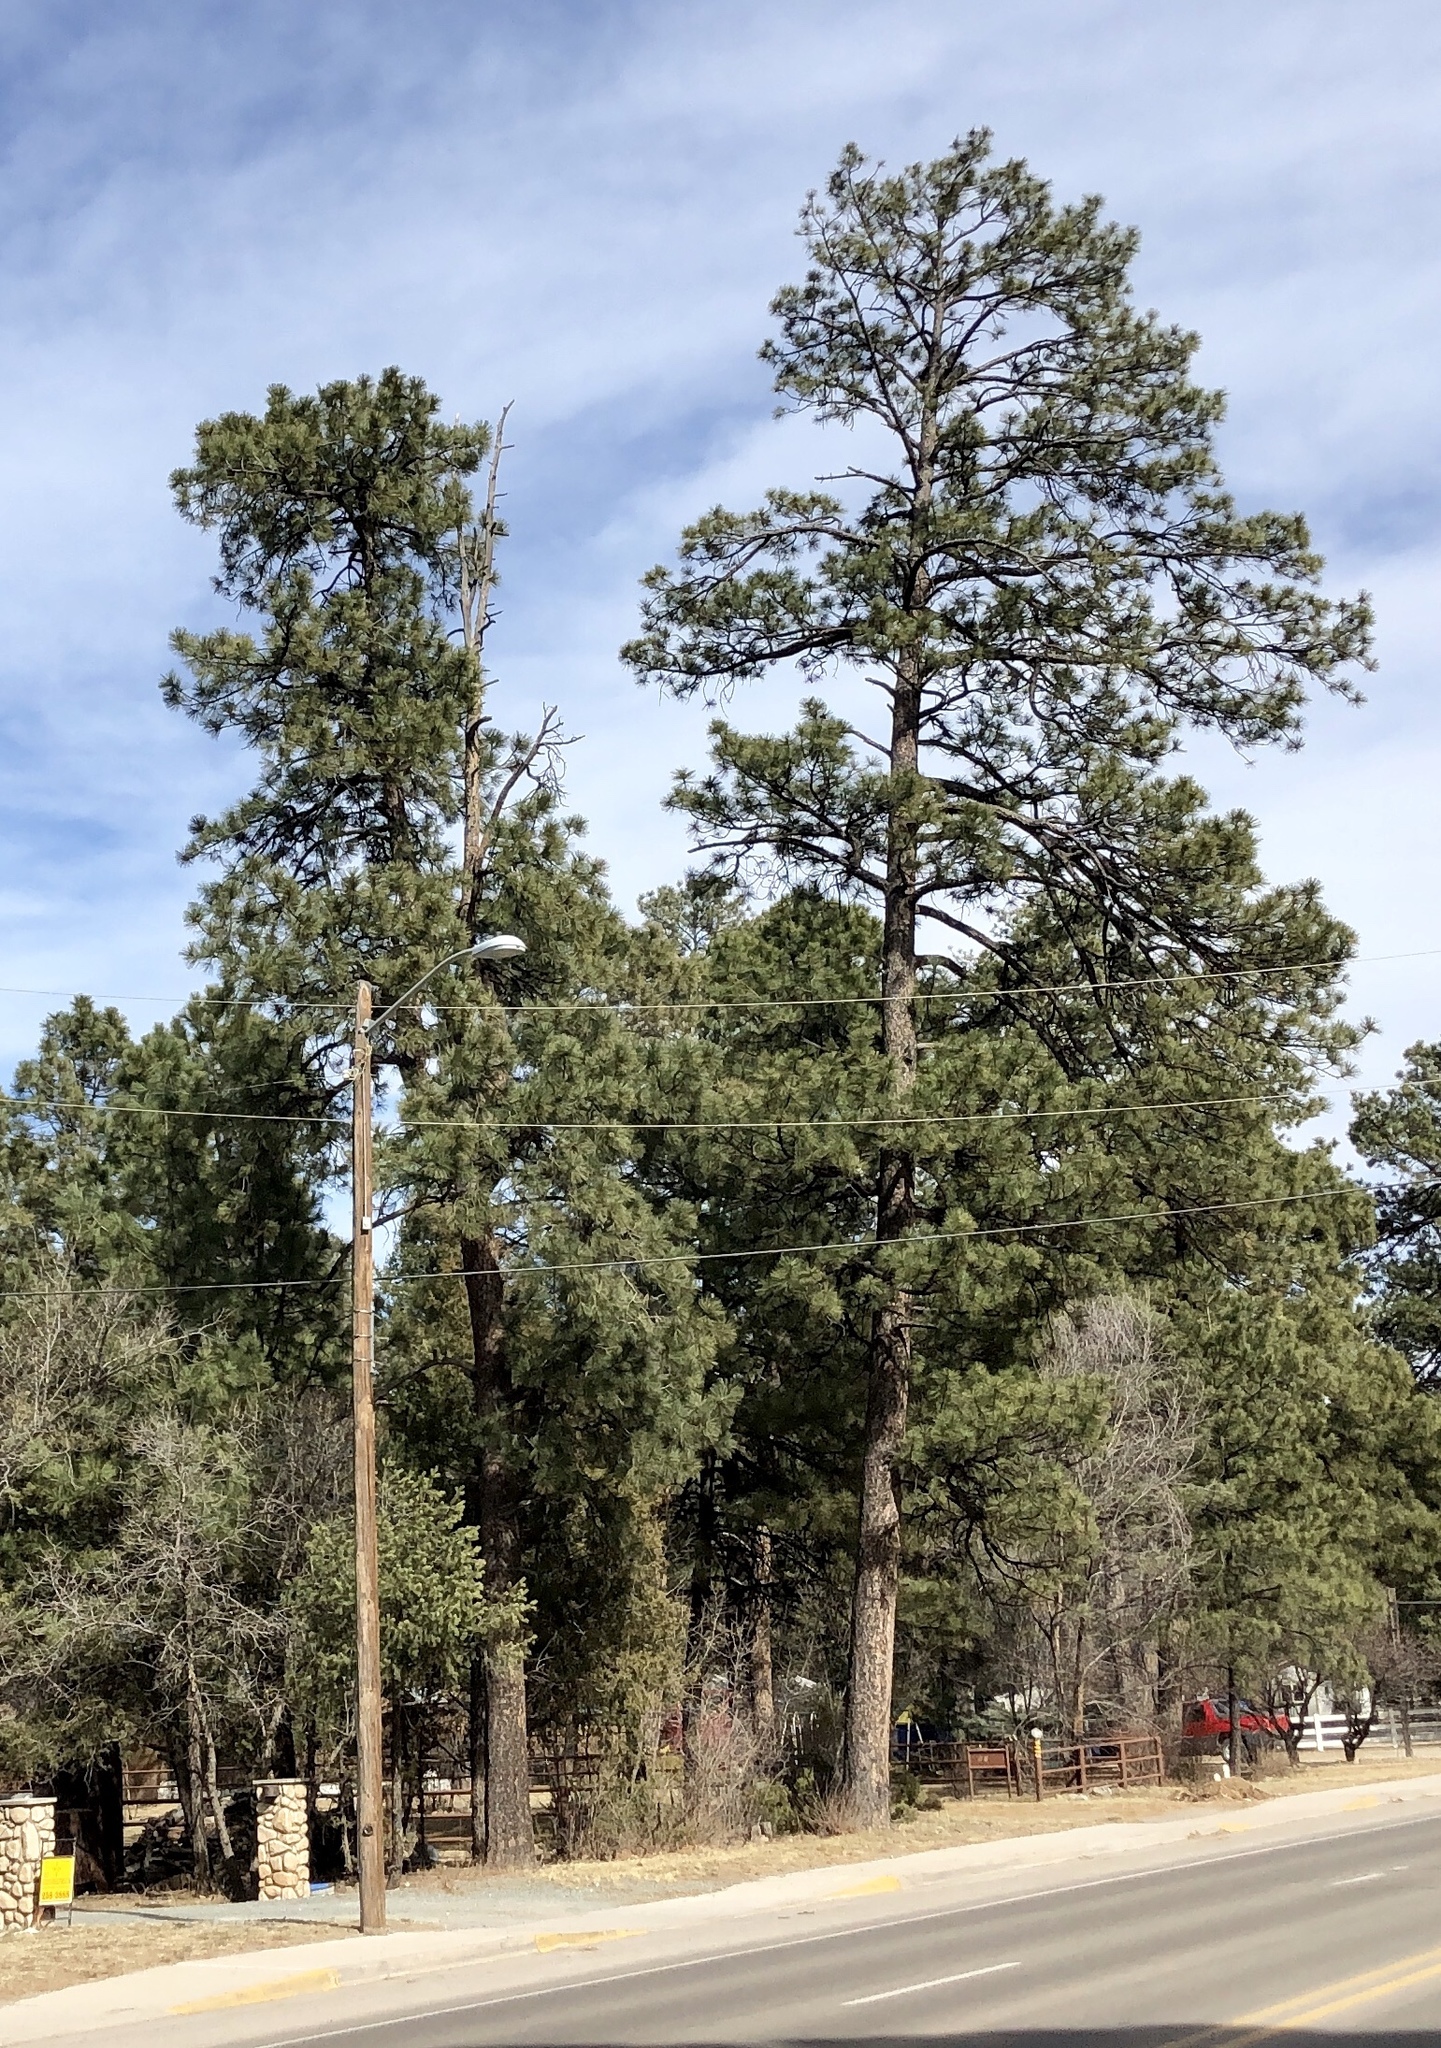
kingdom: Plantae
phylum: Tracheophyta
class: Pinopsida
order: Pinales
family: Pinaceae
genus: Pinus
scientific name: Pinus ponderosa
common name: Western yellow-pine
